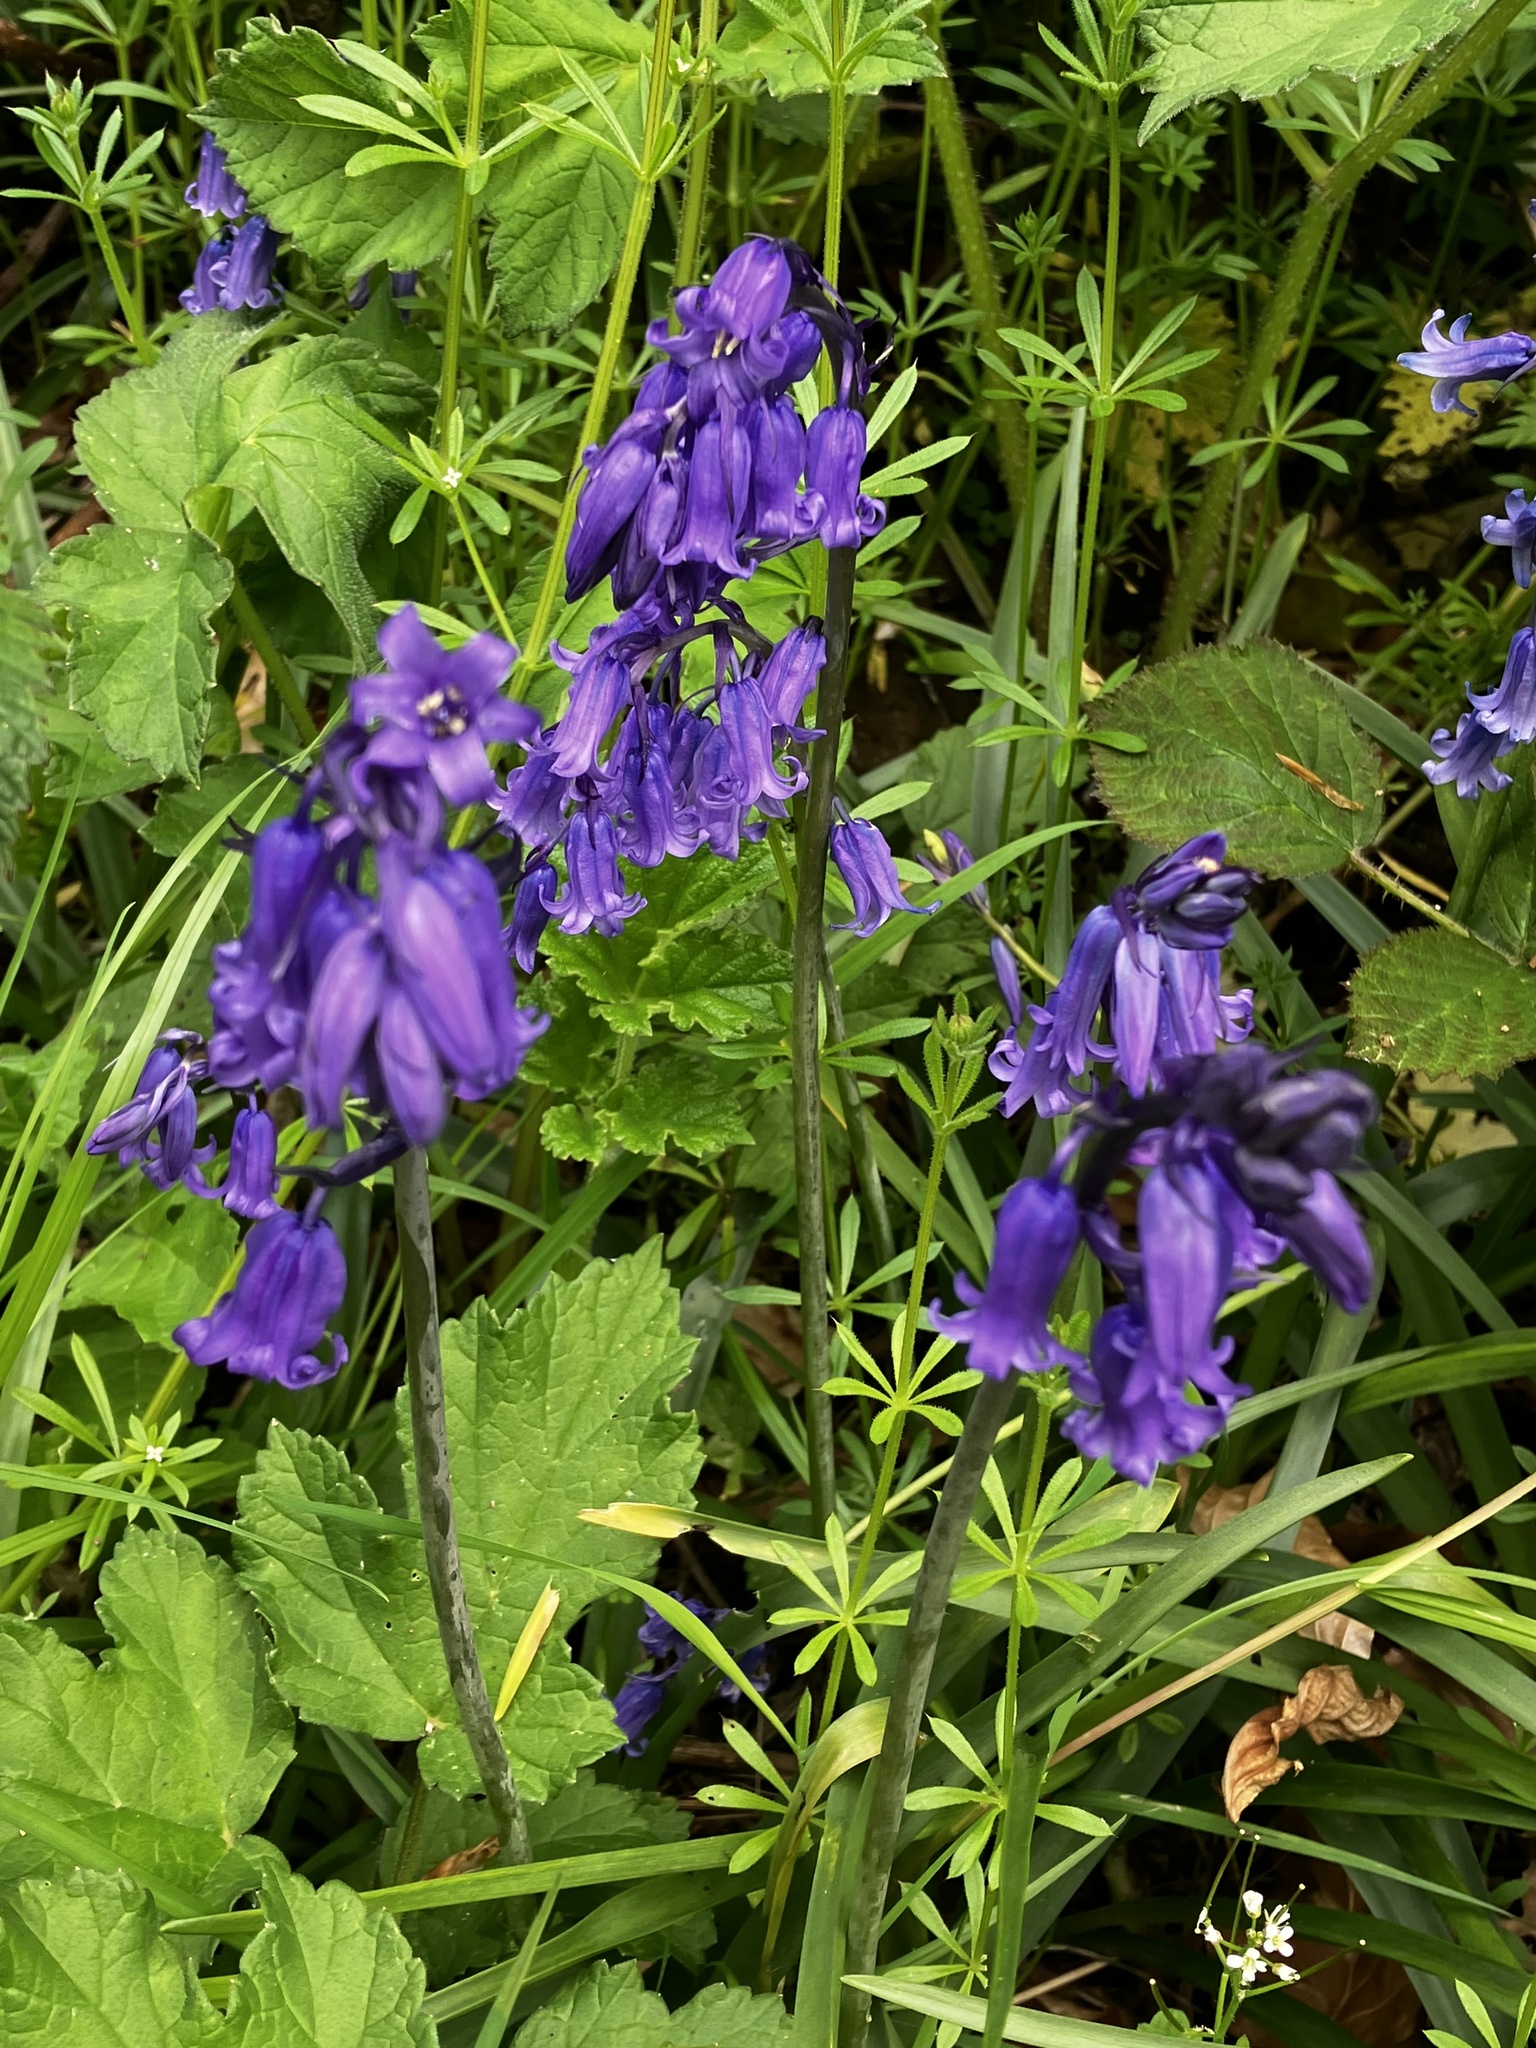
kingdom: Plantae
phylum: Tracheophyta
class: Liliopsida
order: Asparagales
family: Asparagaceae
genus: Hyacinthoides
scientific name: Hyacinthoides non-scripta
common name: Bluebell
